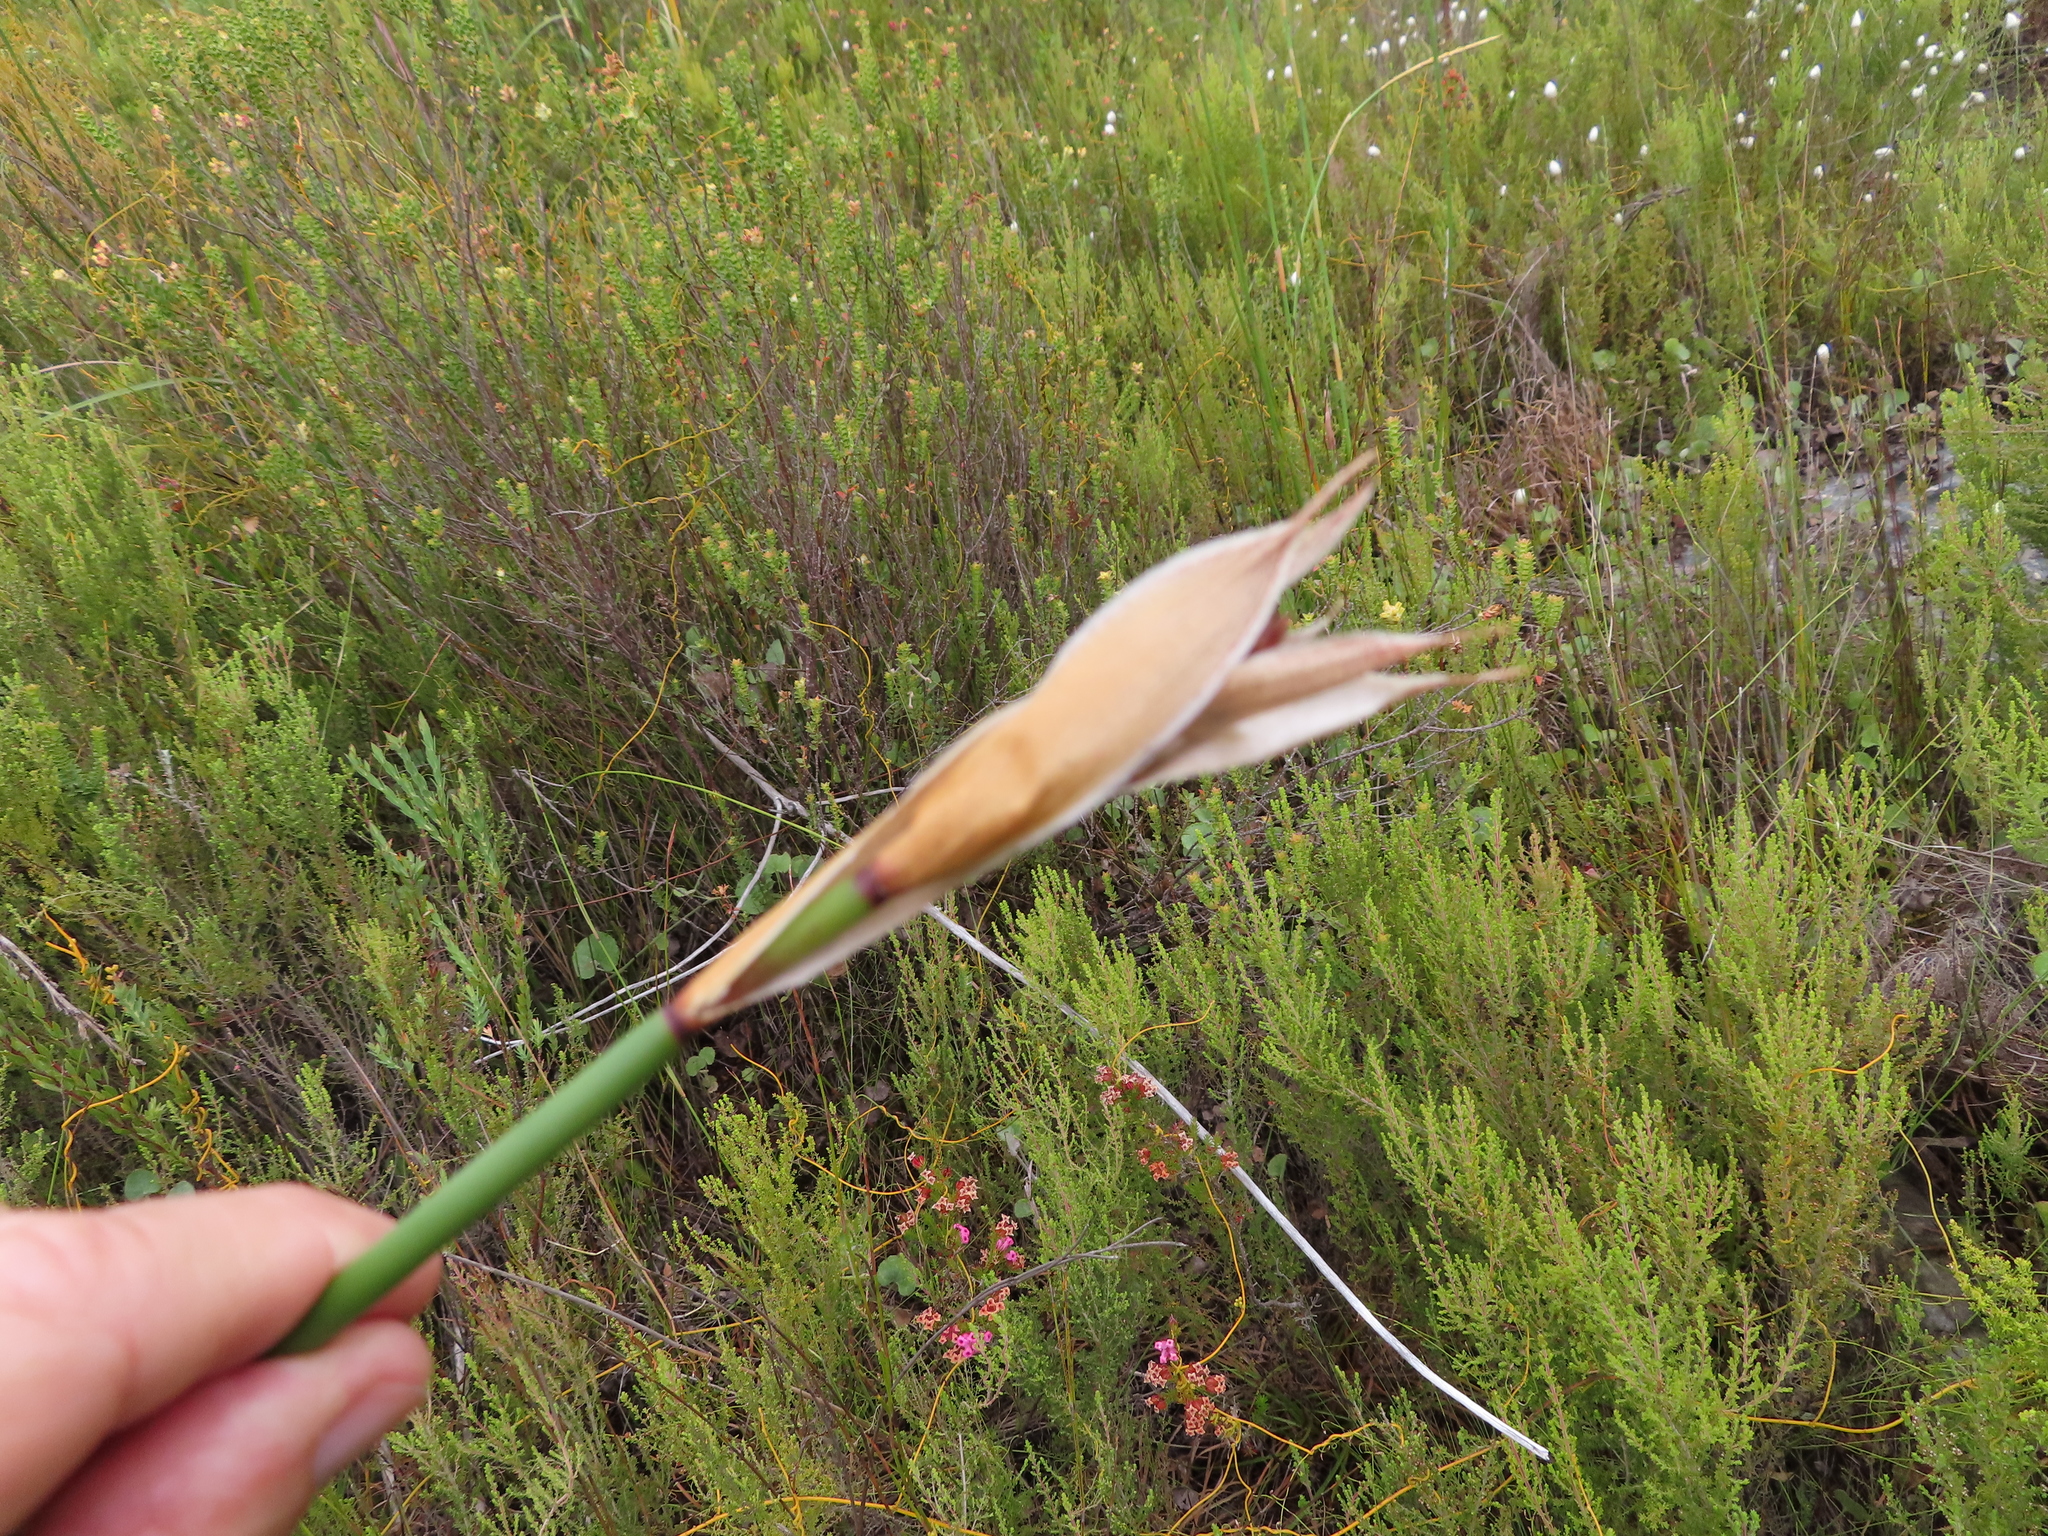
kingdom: Plantae
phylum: Tracheophyta
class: Liliopsida
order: Poales
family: Restionaceae
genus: Elegia
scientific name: Elegia mucronata
